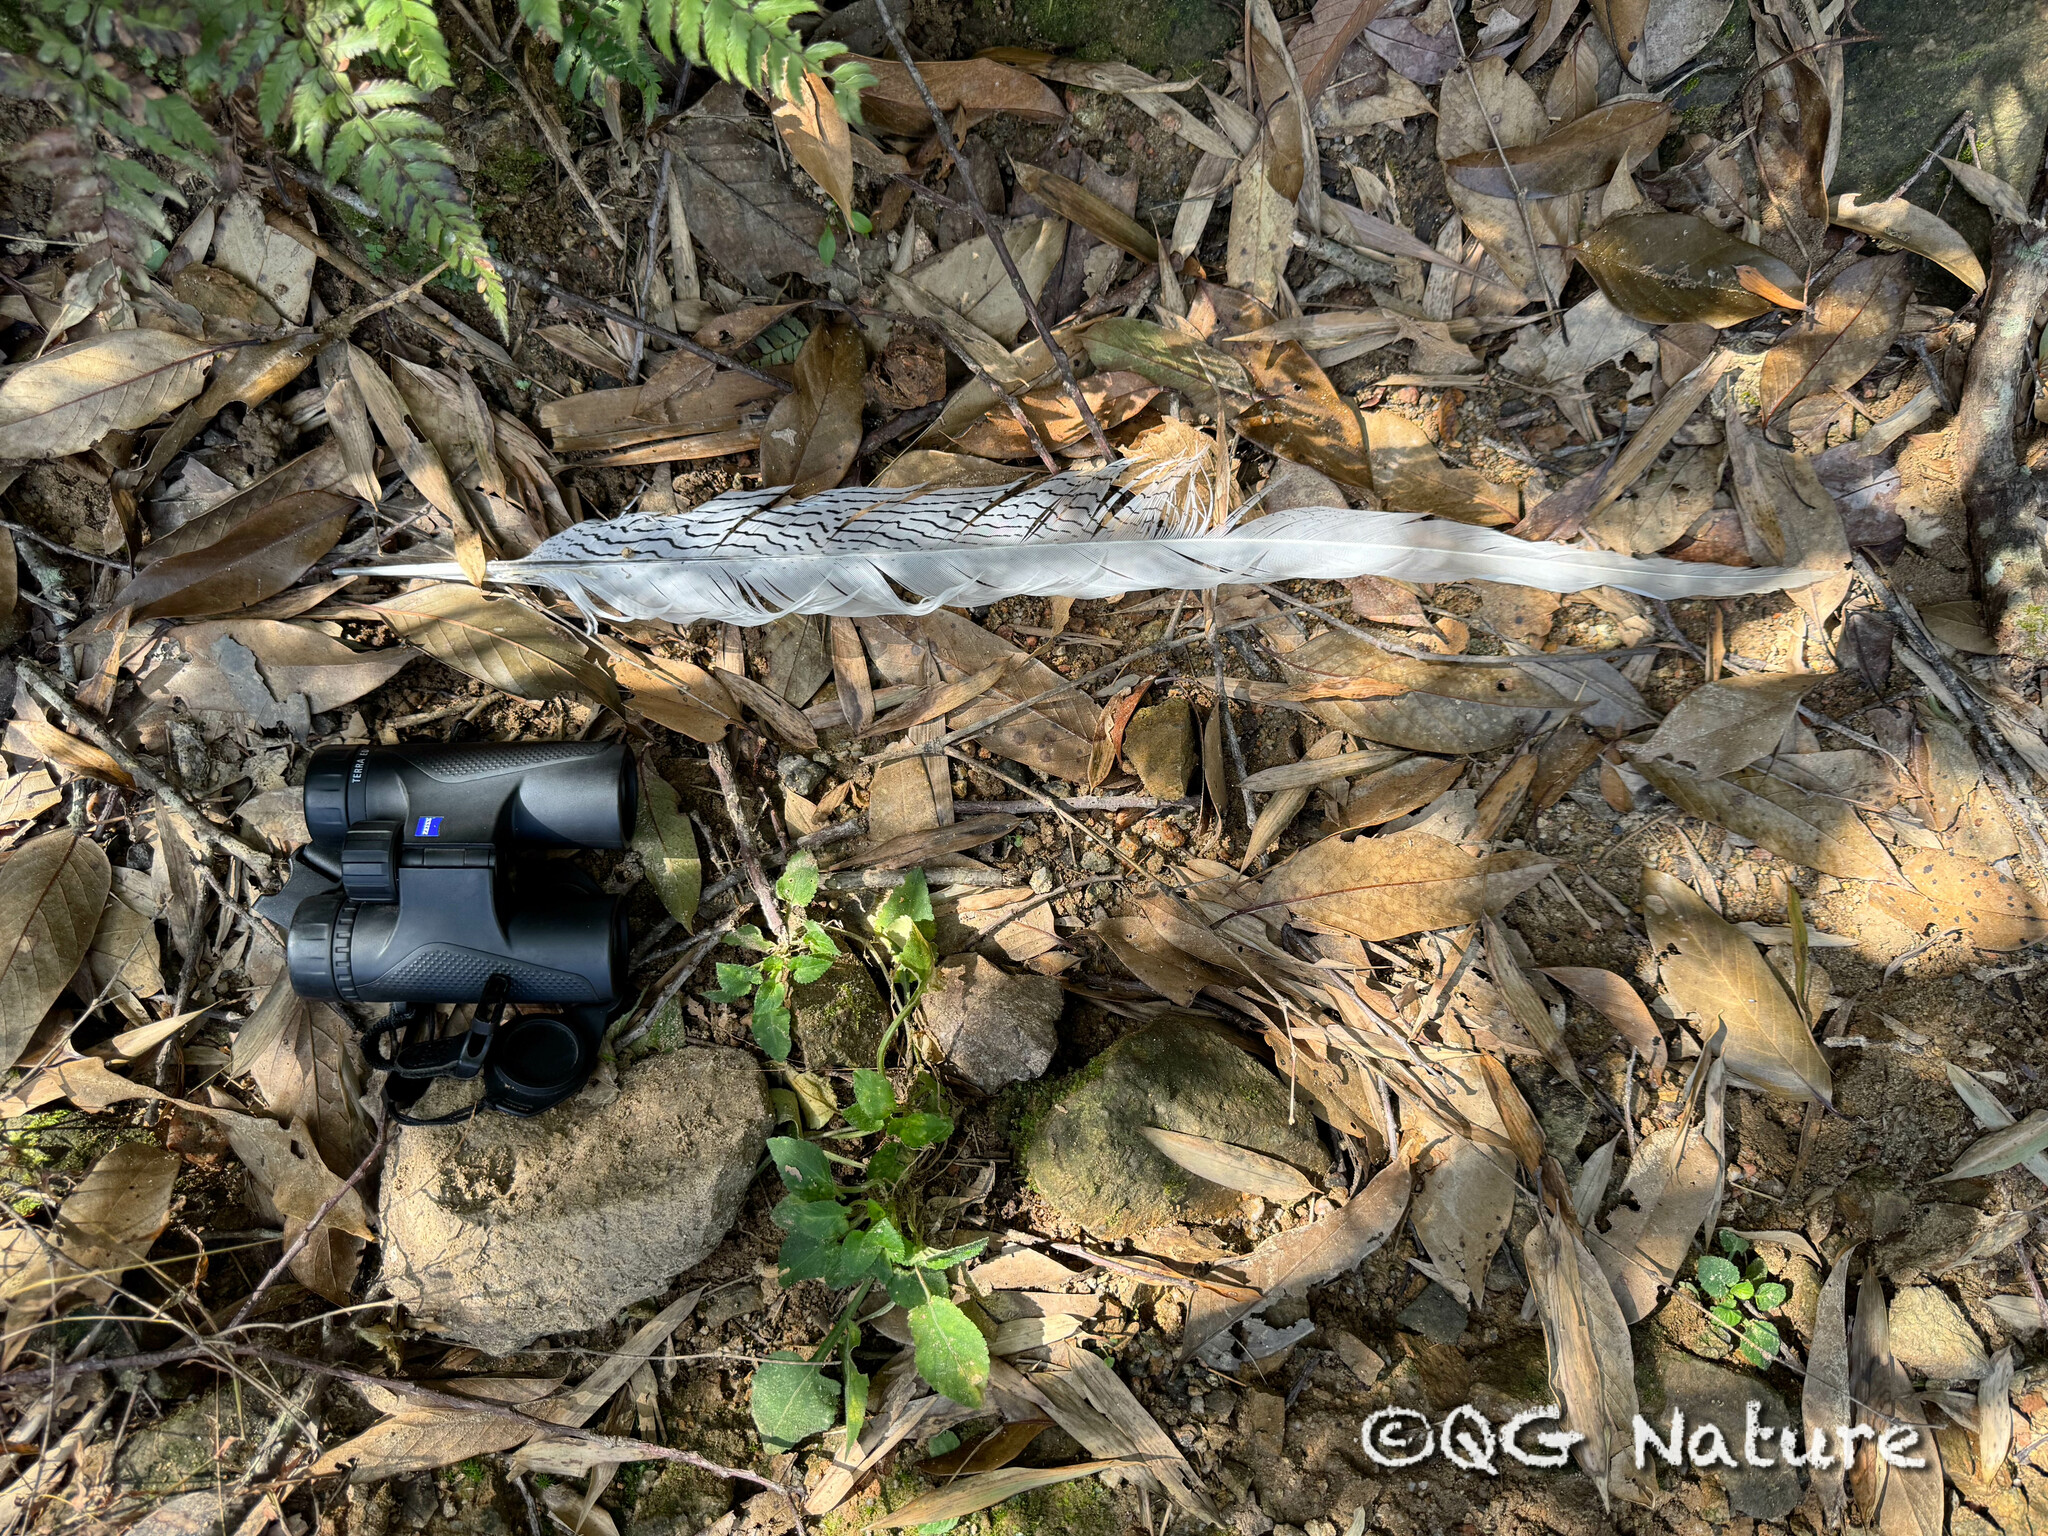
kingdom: Animalia
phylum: Chordata
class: Aves
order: Galliformes
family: Phasianidae
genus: Lophura
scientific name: Lophura nycthemera
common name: Silver pheasant
